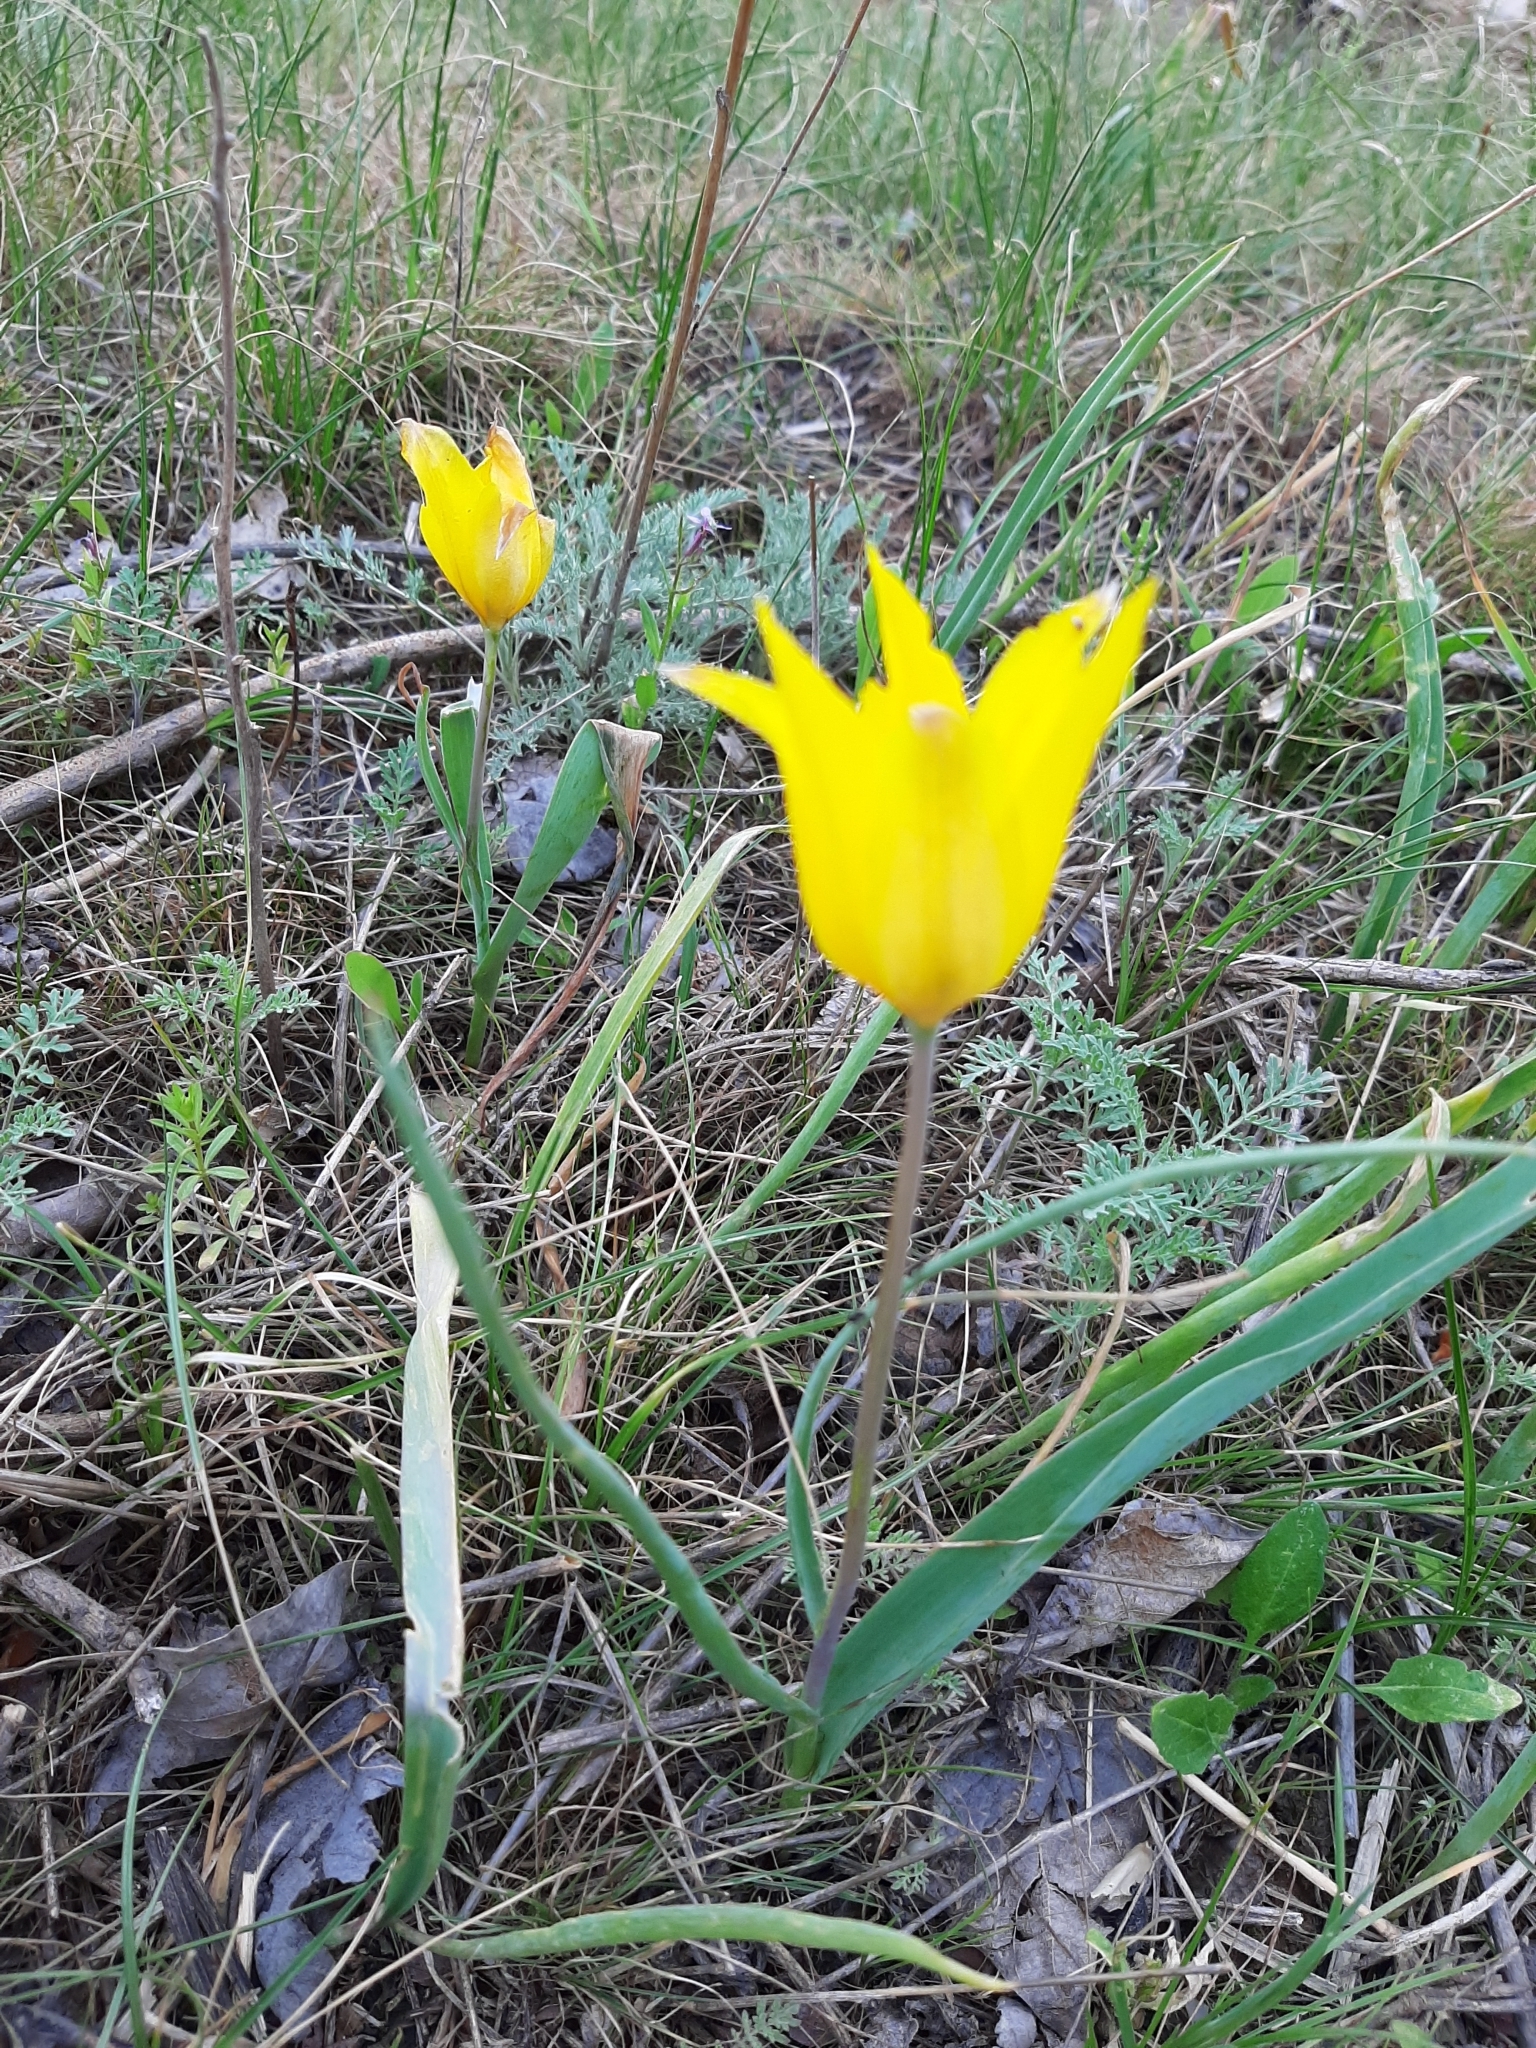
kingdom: Plantae
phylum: Tracheophyta
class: Liliopsida
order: Liliales
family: Liliaceae
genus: Tulipa
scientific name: Tulipa kolpakowskiana
